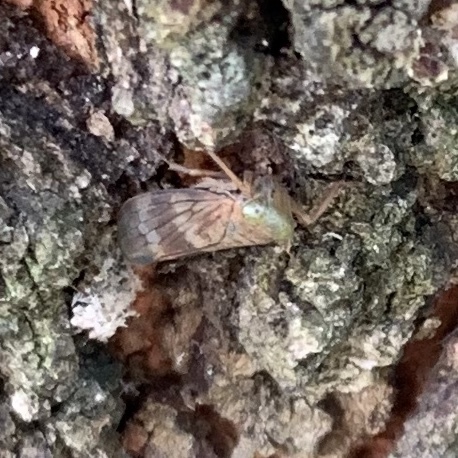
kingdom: Animalia
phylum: Arthropoda
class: Insecta
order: Hemiptera
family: Cicadellidae
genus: Jikradia
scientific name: Jikradia olitoria
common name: Coppery leafhopper
